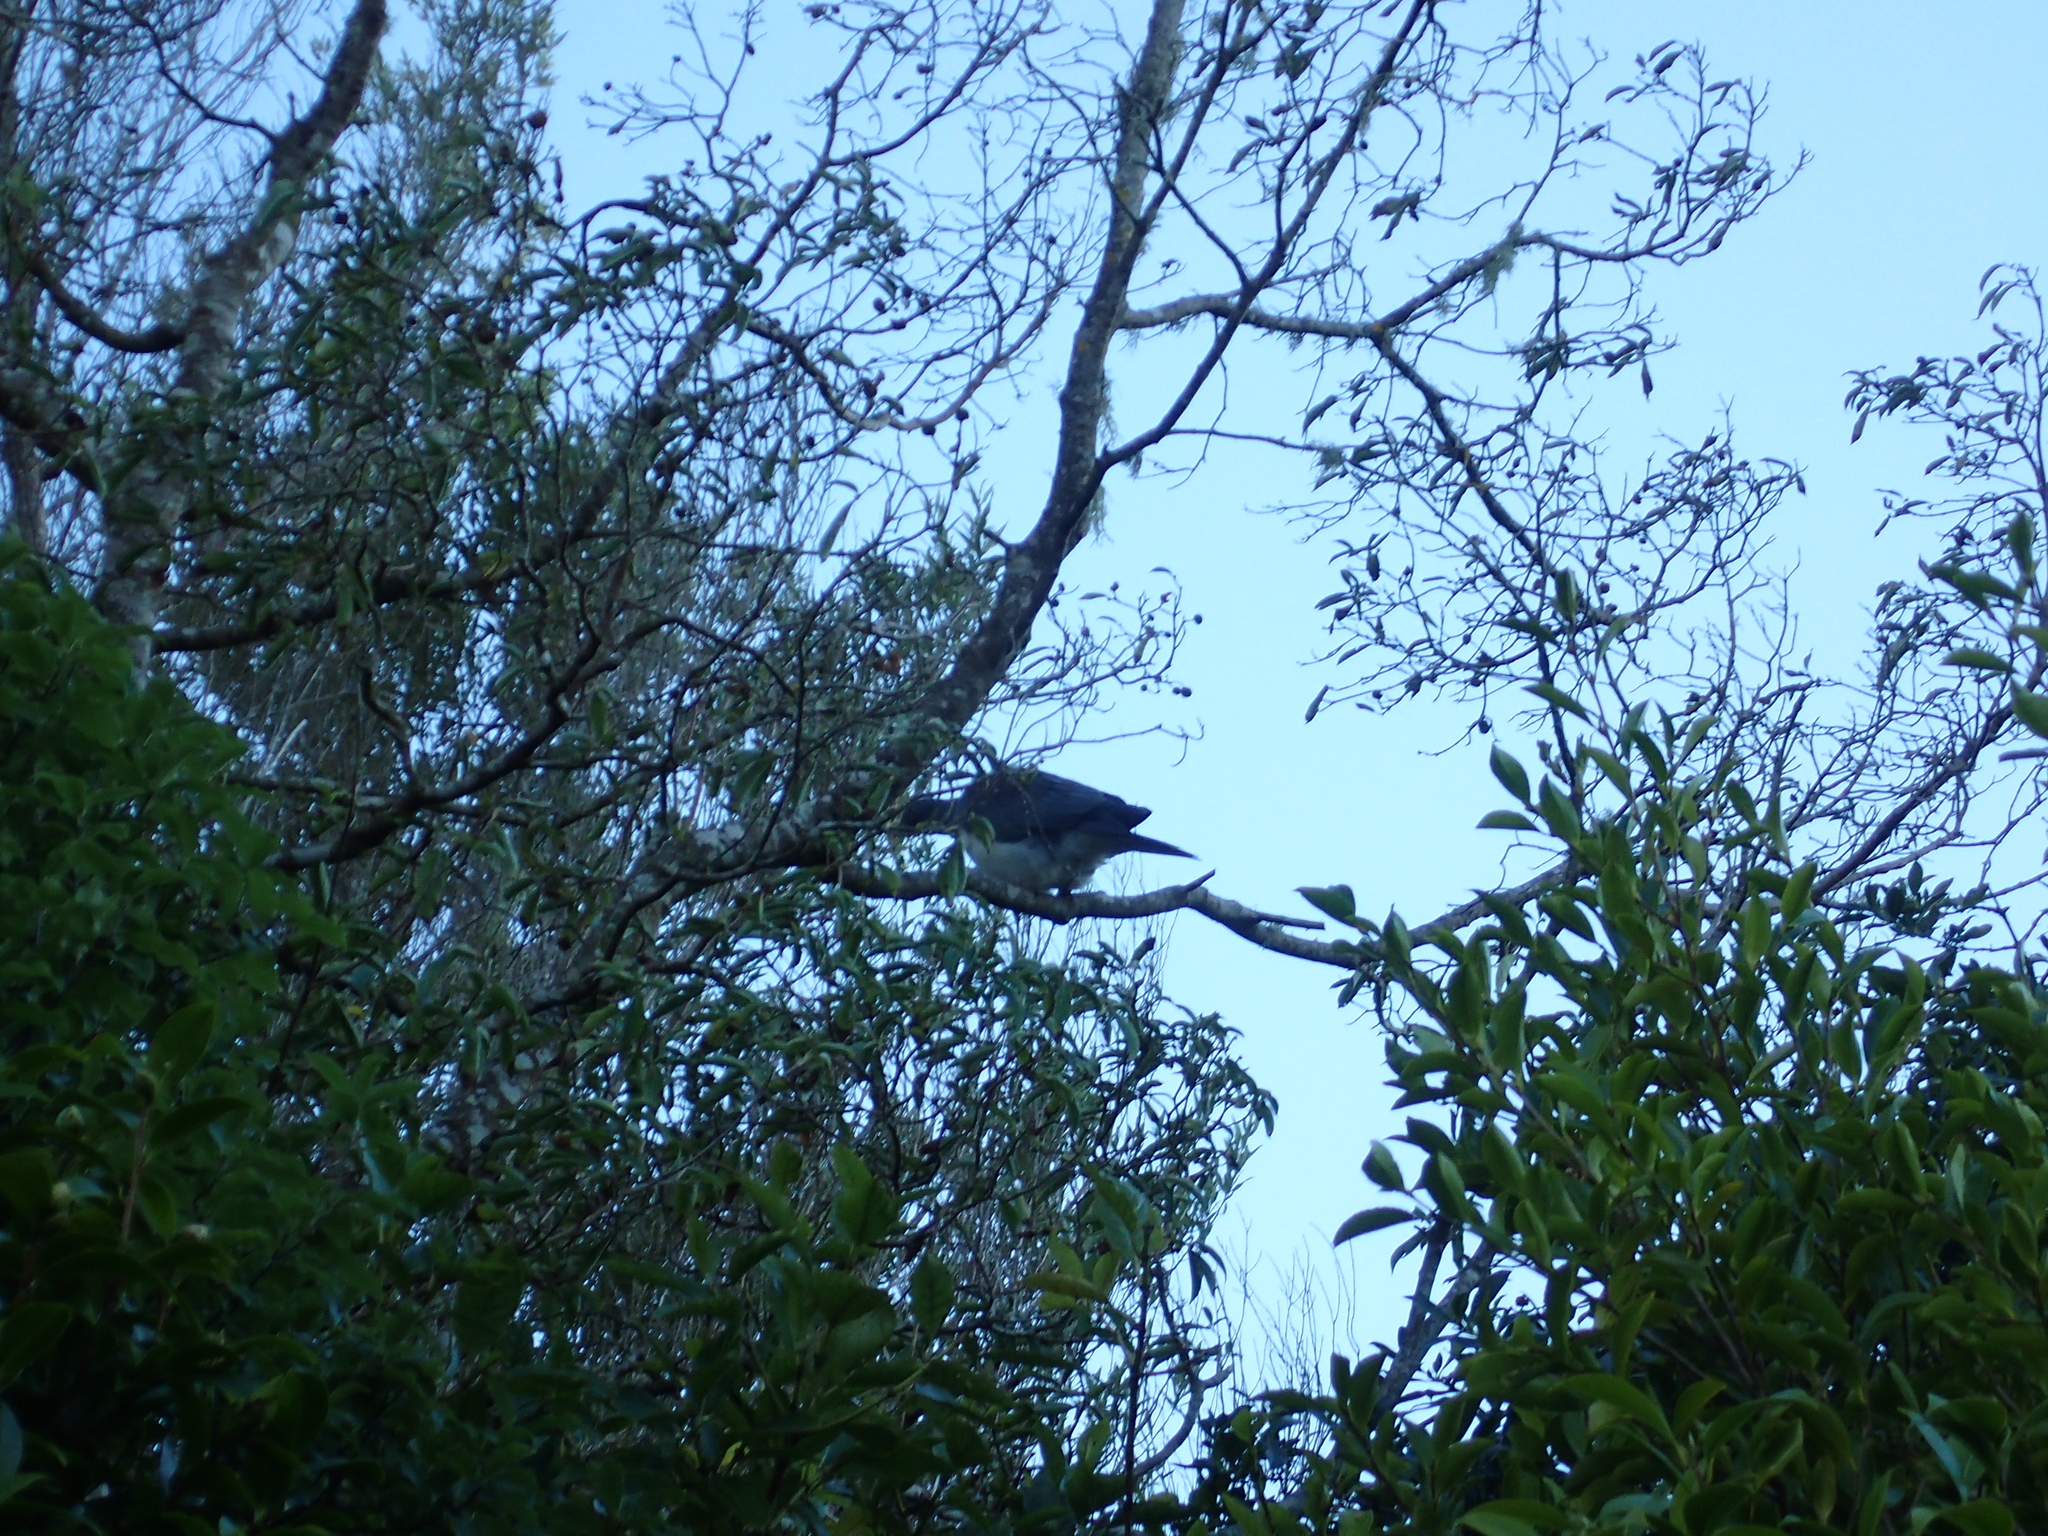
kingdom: Animalia
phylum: Chordata
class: Aves
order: Columbiformes
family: Columbidae
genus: Hemiphaga
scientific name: Hemiphaga novaeseelandiae
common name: New zealand pigeon
